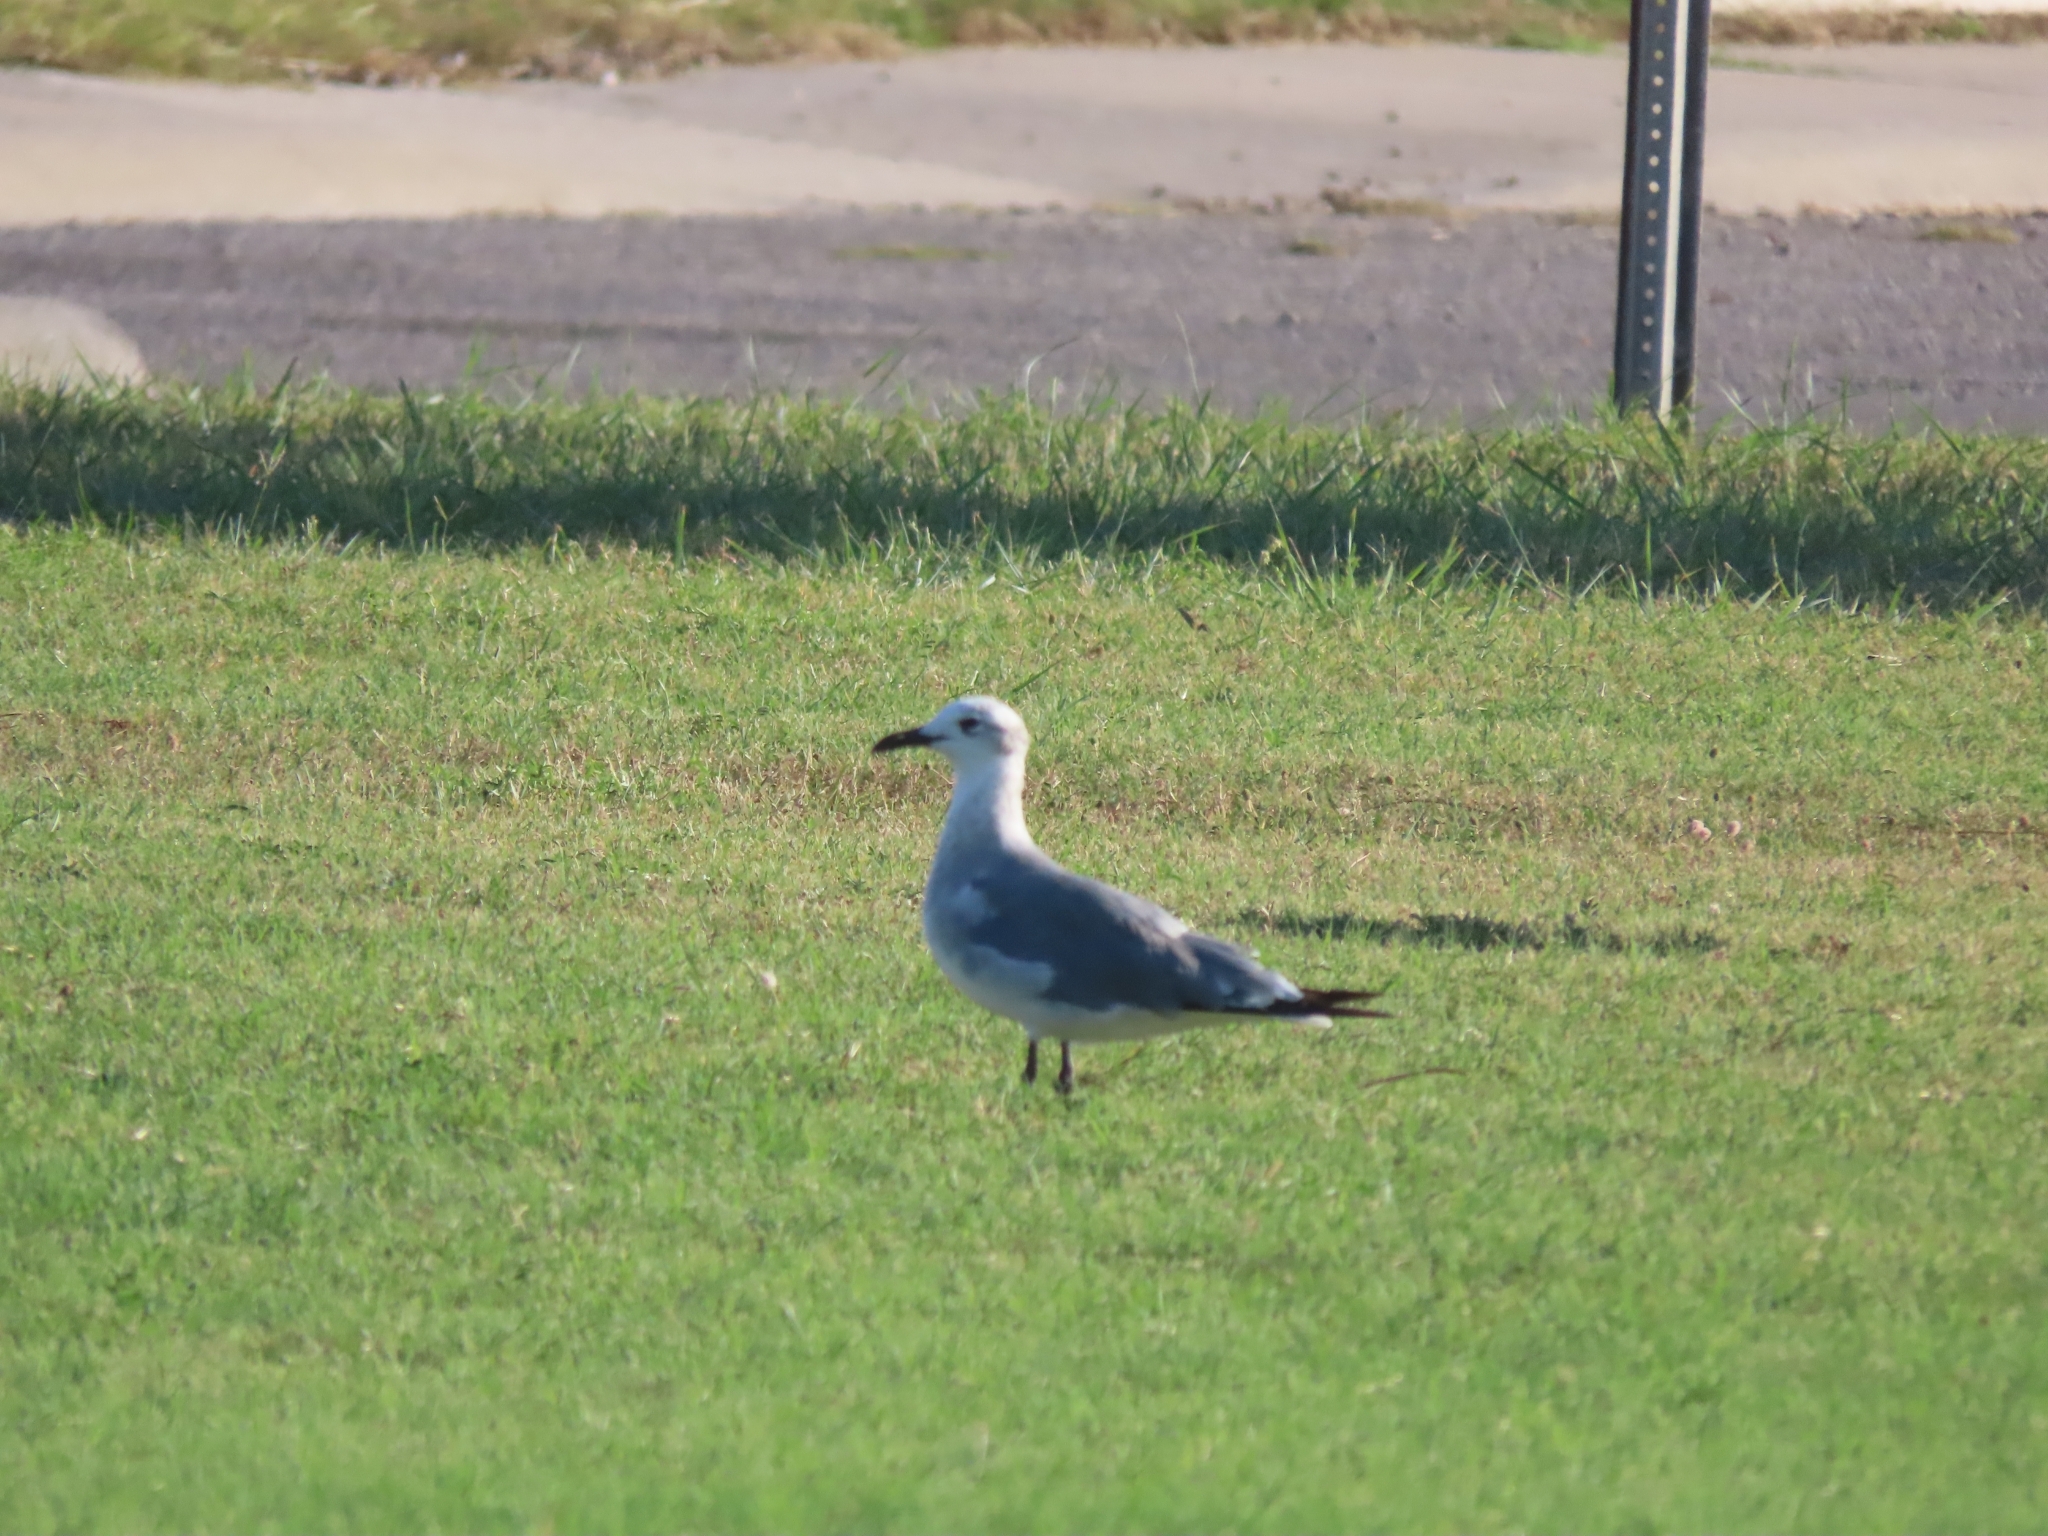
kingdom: Animalia
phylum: Chordata
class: Aves
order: Charadriiformes
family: Laridae
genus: Leucophaeus
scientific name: Leucophaeus atricilla
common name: Laughing gull
